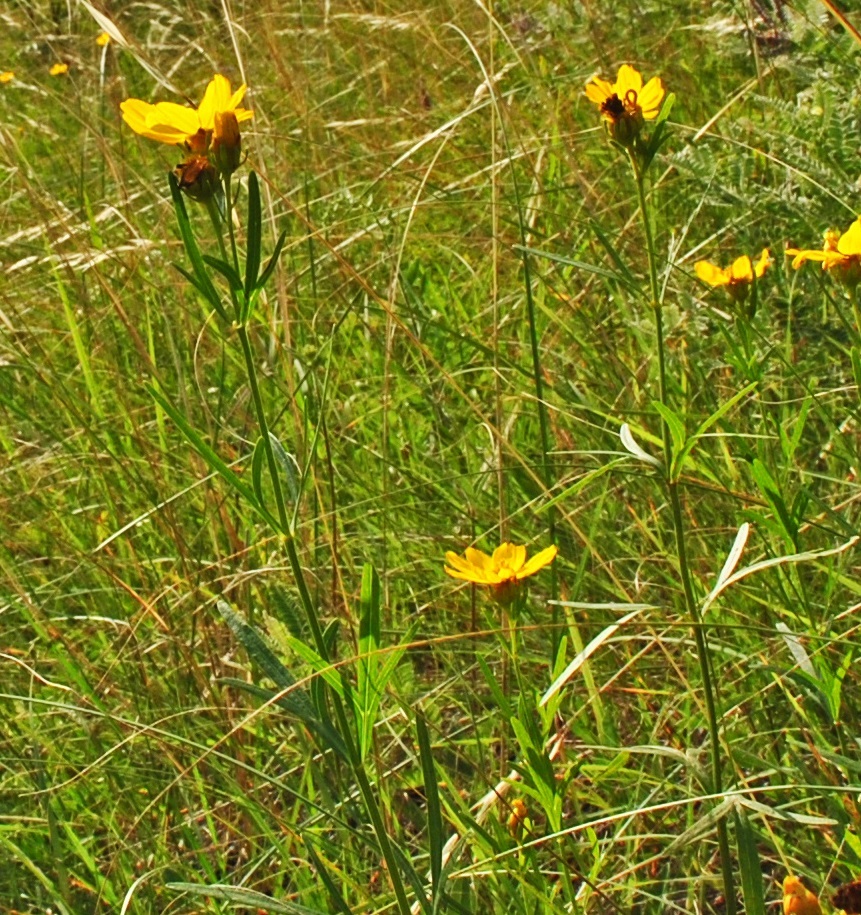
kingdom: Plantae
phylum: Tracheophyta
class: Magnoliopsida
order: Asterales
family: Asteraceae
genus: Coreopsis
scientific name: Coreopsis palmata
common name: Prairie coreopsis
